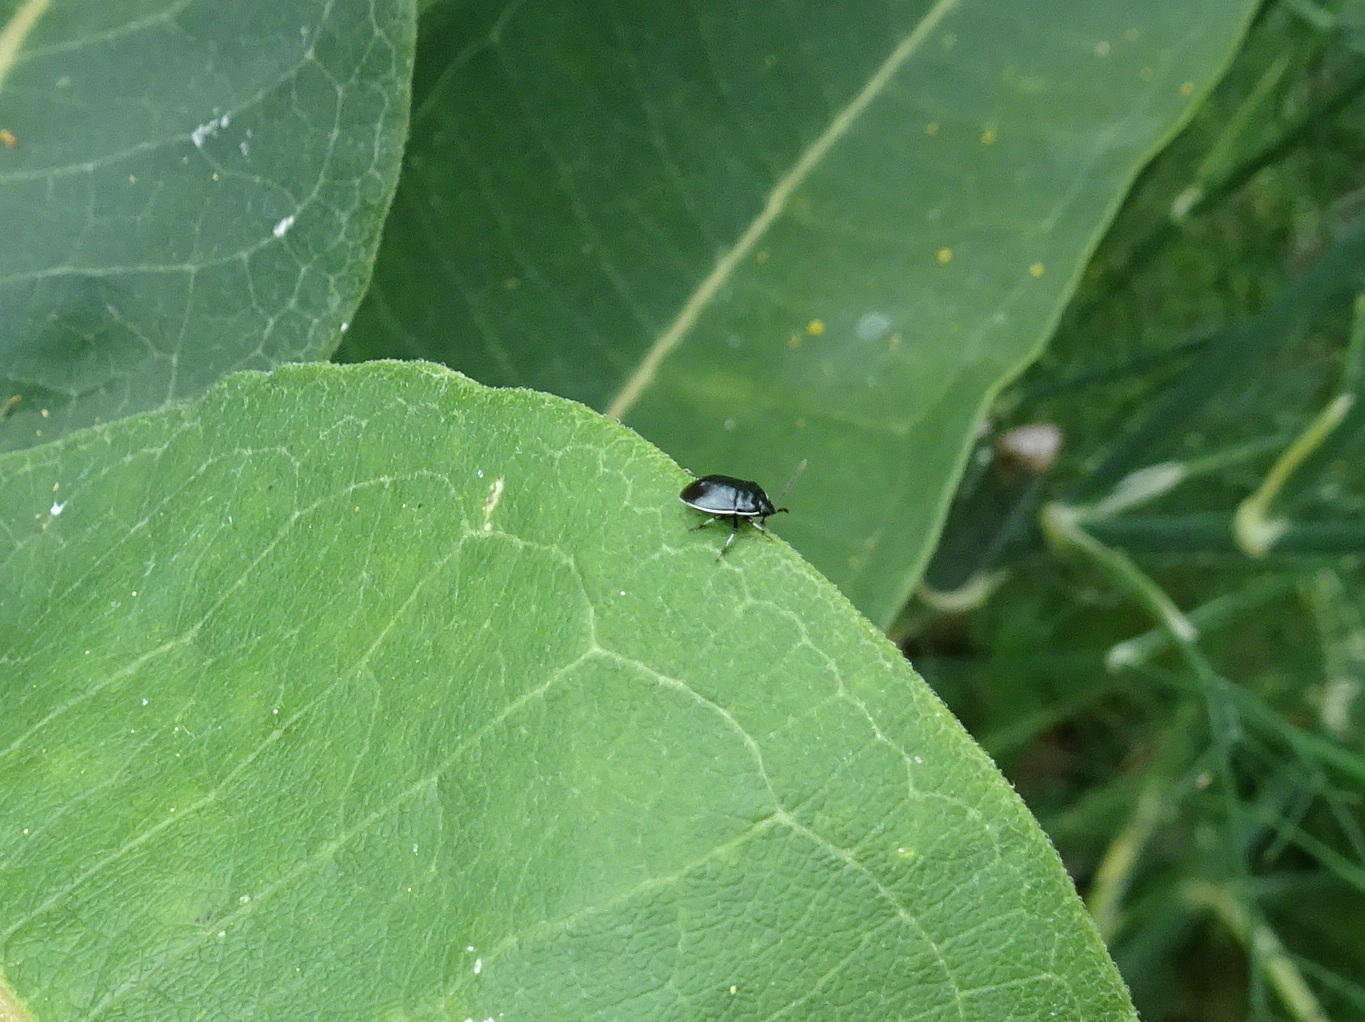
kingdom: Animalia
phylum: Arthropoda
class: Insecta
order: Hemiptera
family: Cydnidae
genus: Sehirus
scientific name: Sehirus cinctus
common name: White-margined burrower bug
